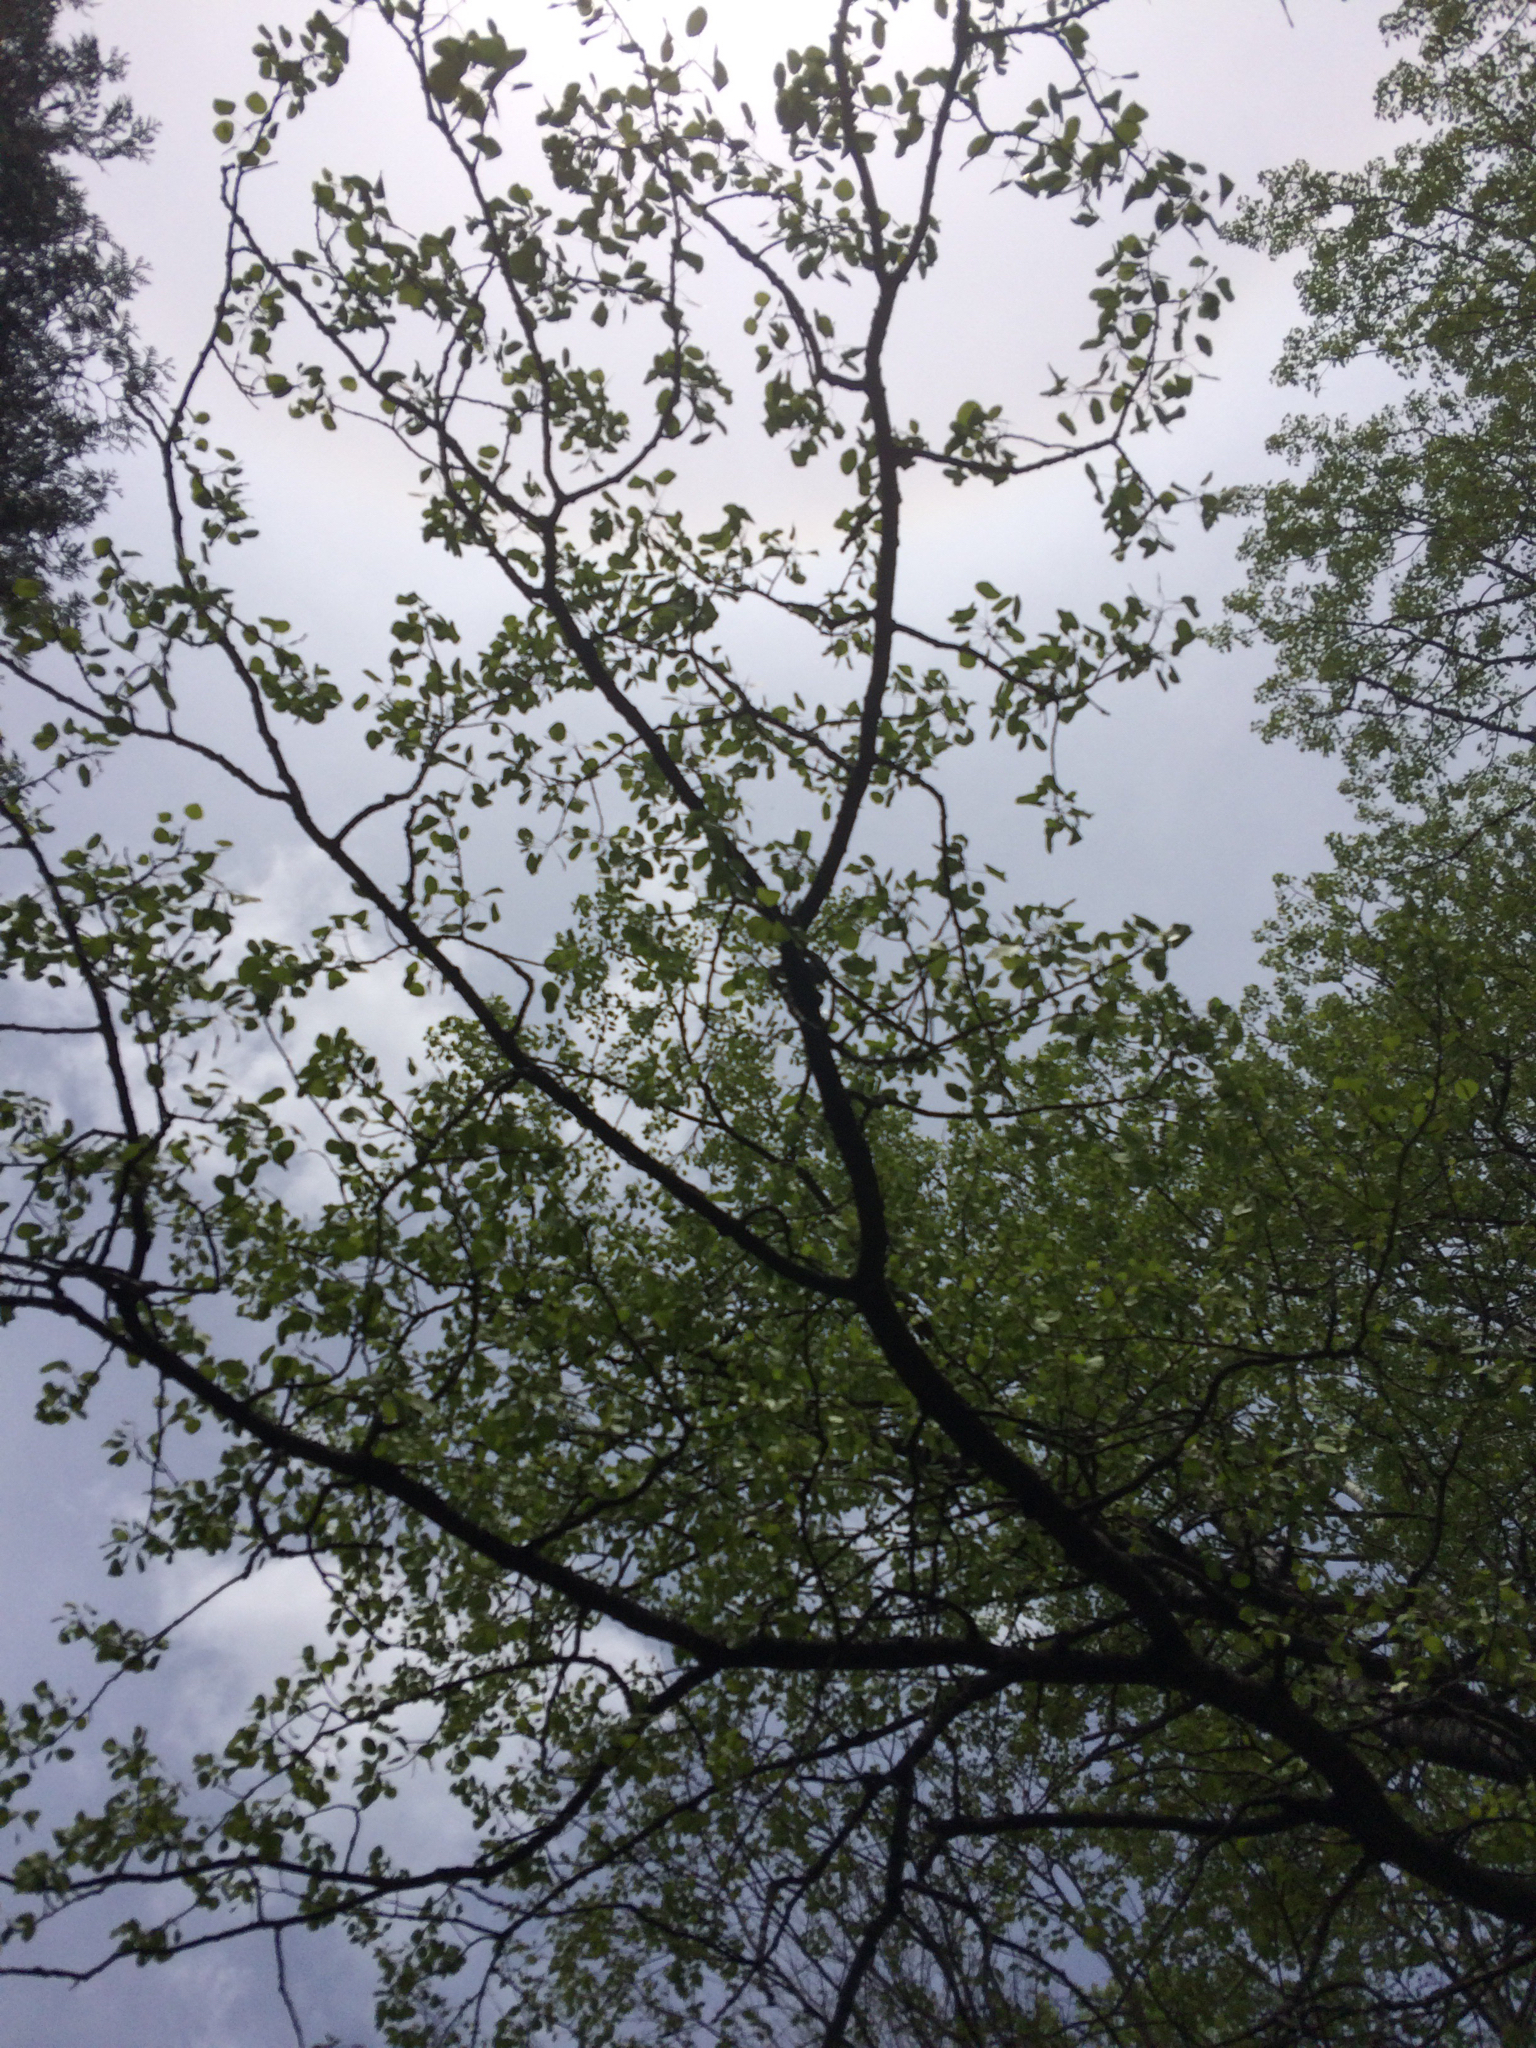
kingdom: Plantae
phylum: Tracheophyta
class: Magnoliopsida
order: Malpighiales
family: Salicaceae
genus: Populus
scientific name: Populus tremuloides
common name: Quaking aspen
